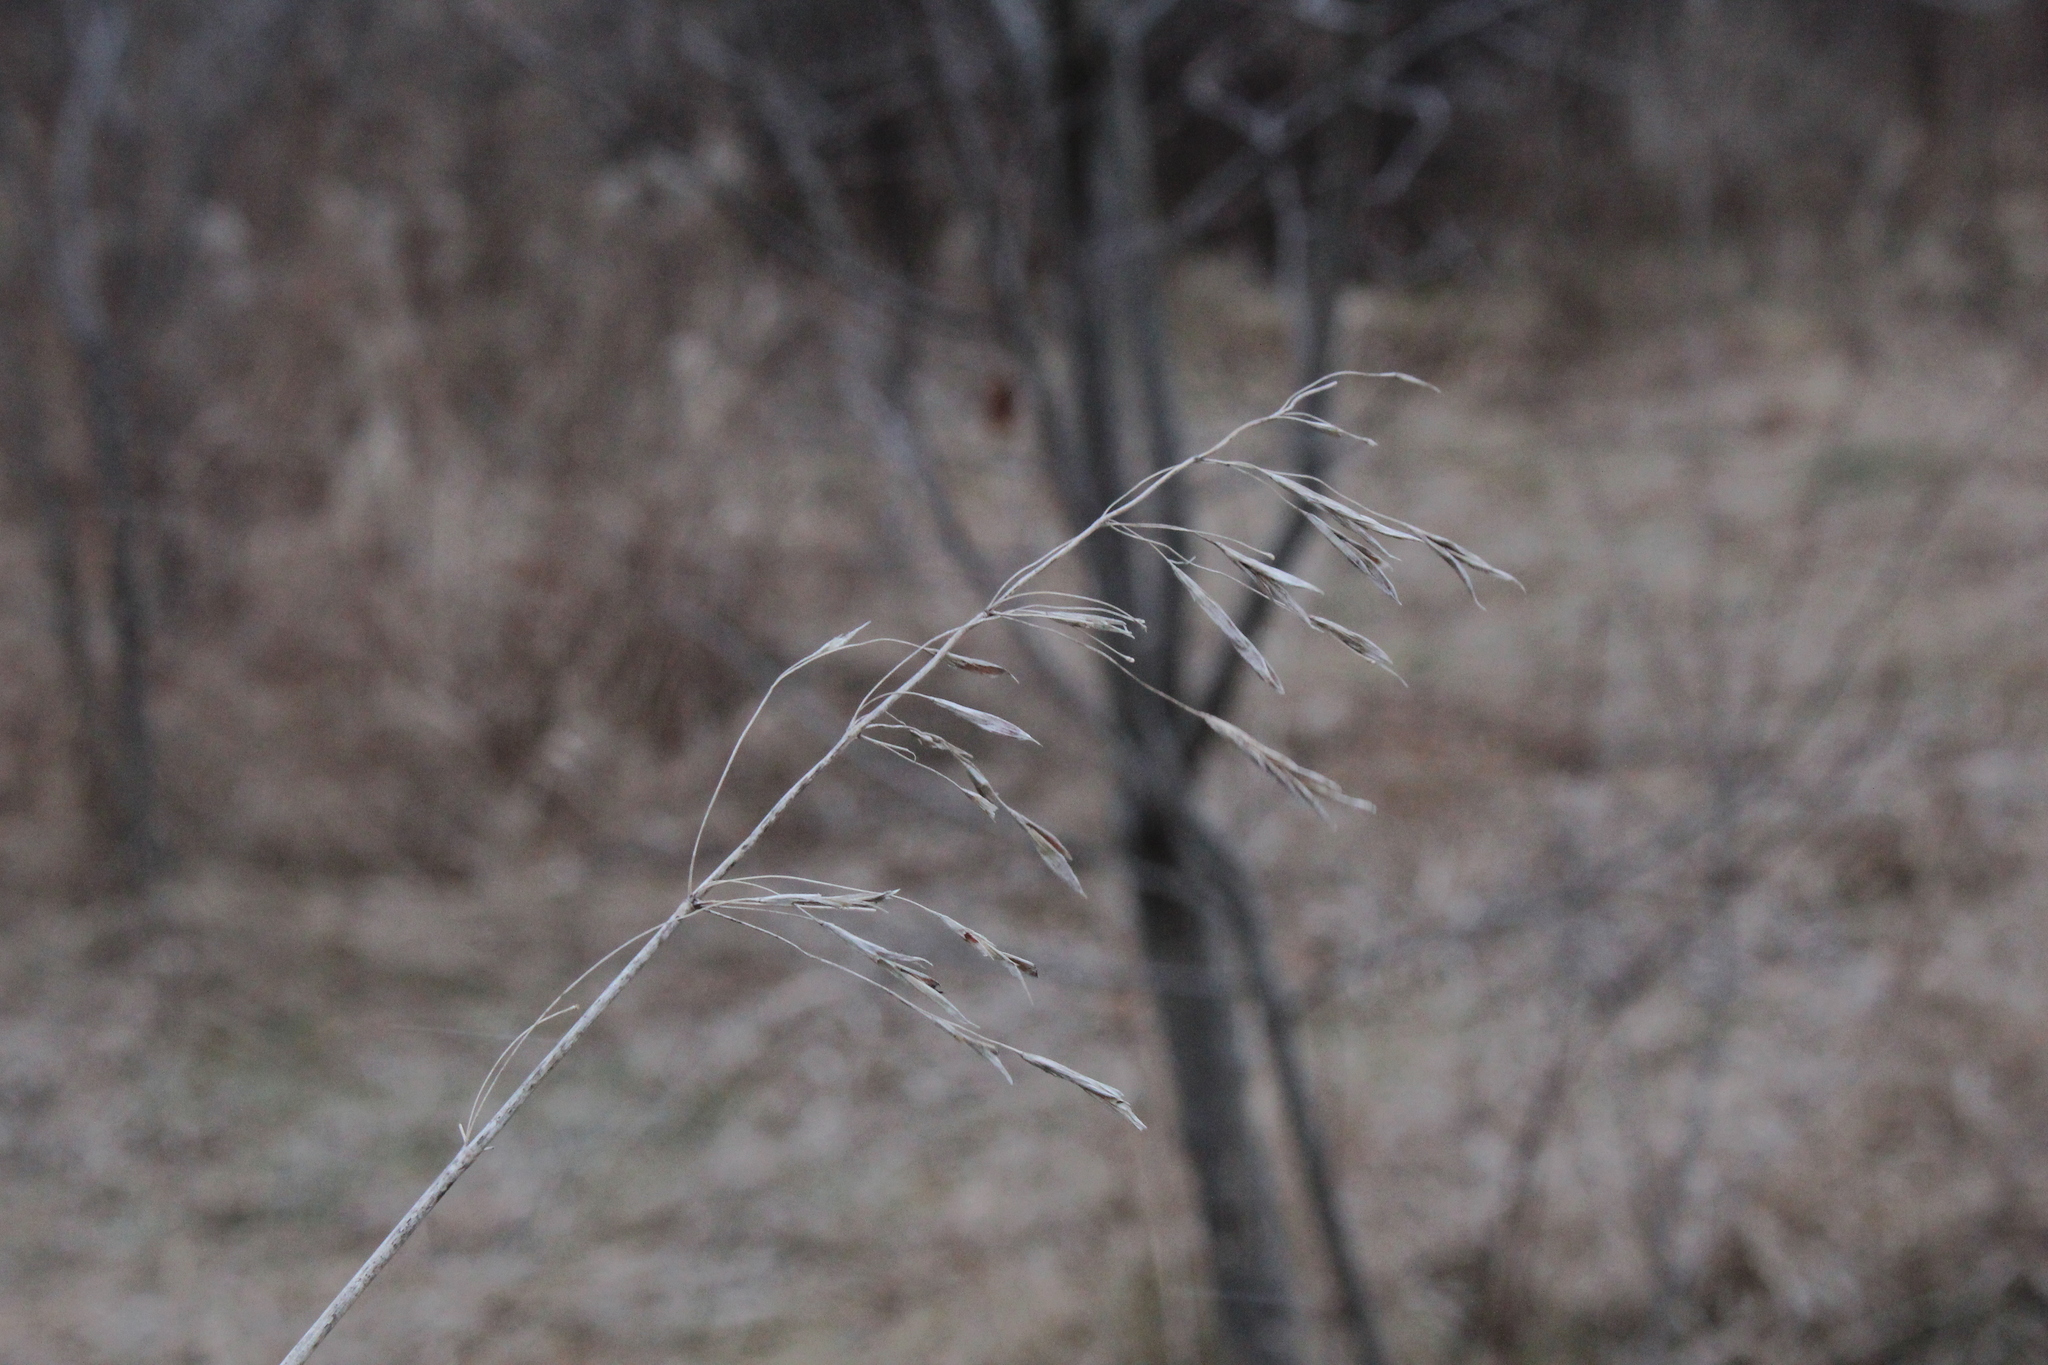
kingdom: Plantae
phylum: Tracheophyta
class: Liliopsida
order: Poales
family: Poaceae
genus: Bromus
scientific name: Bromus inermis
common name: Smooth brome
